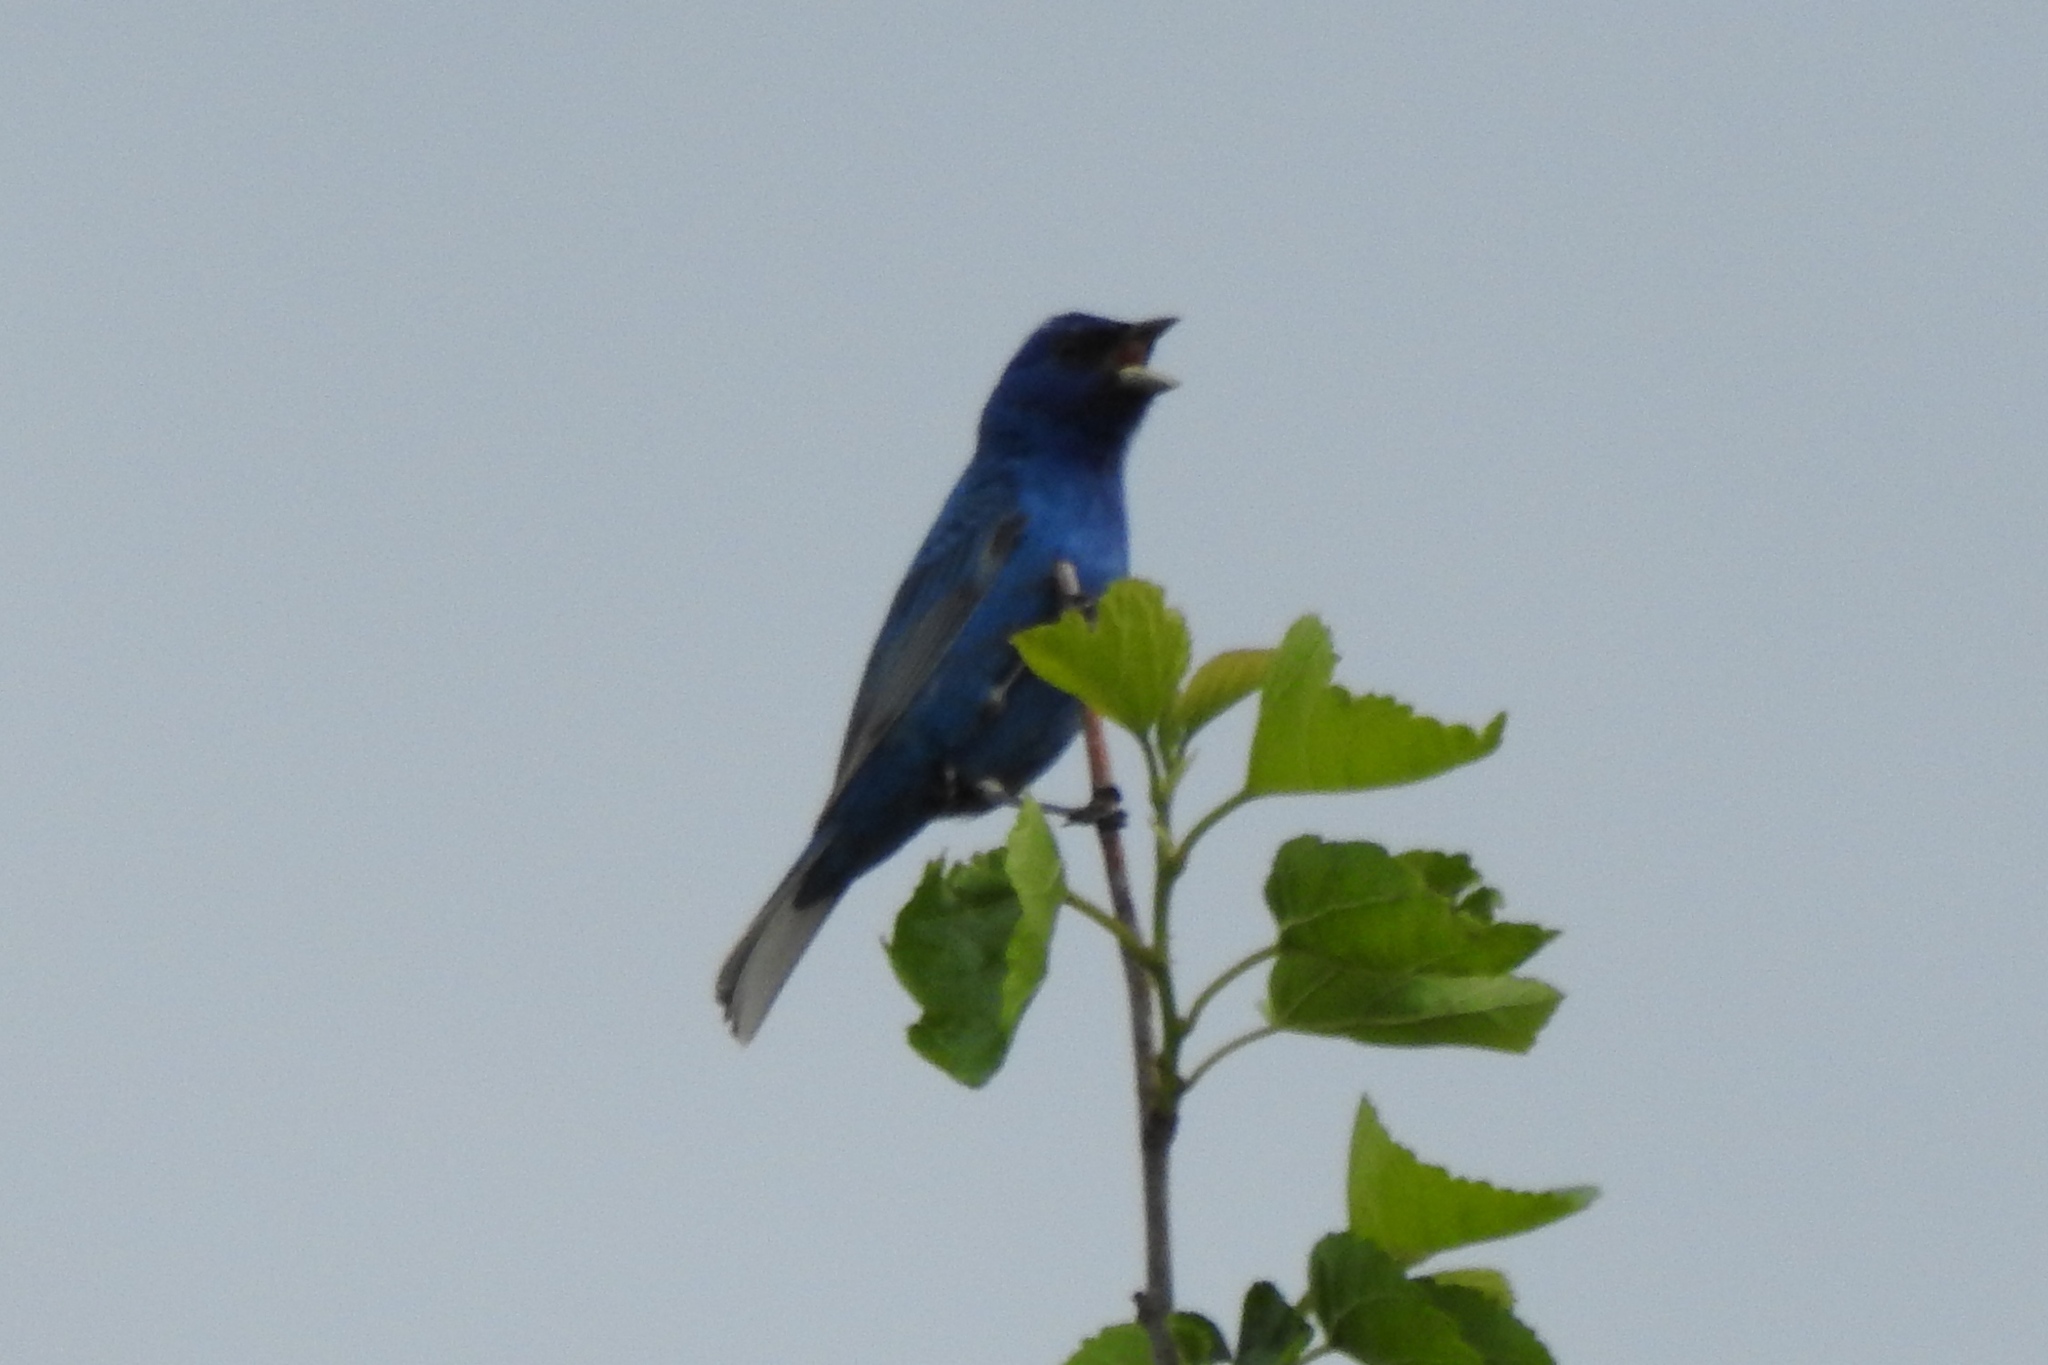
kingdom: Animalia
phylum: Chordata
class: Aves
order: Passeriformes
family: Cardinalidae
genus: Passerina
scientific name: Passerina cyanea
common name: Indigo bunting
